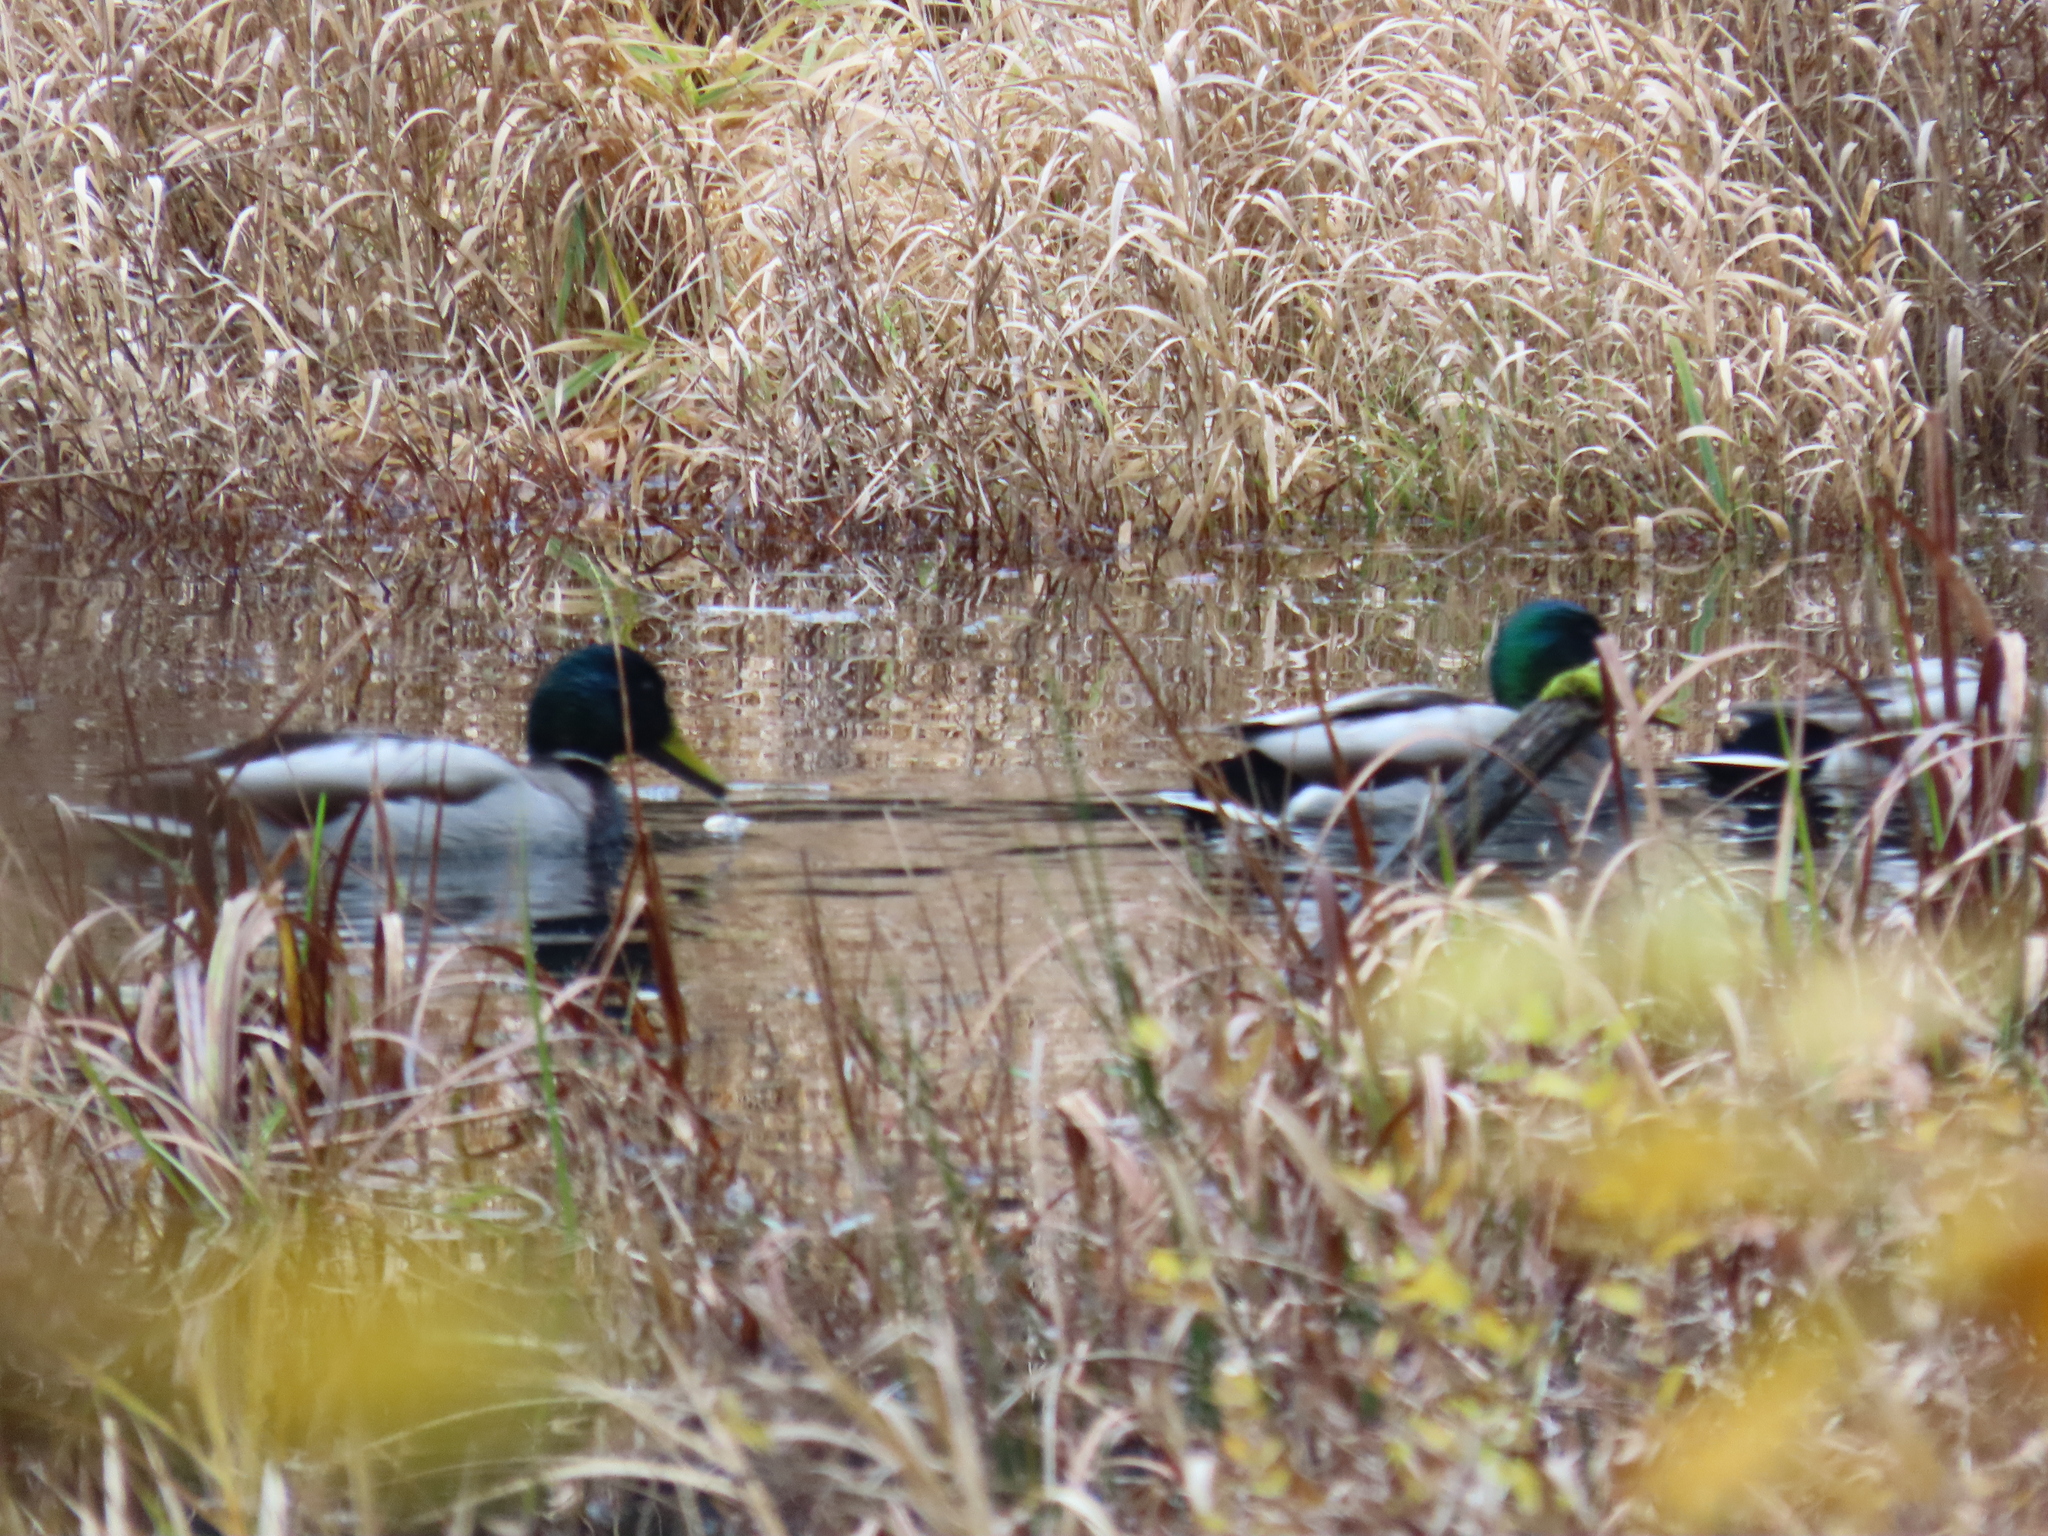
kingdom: Animalia
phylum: Chordata
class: Aves
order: Anseriformes
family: Anatidae
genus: Anas
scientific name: Anas platyrhynchos
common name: Mallard
